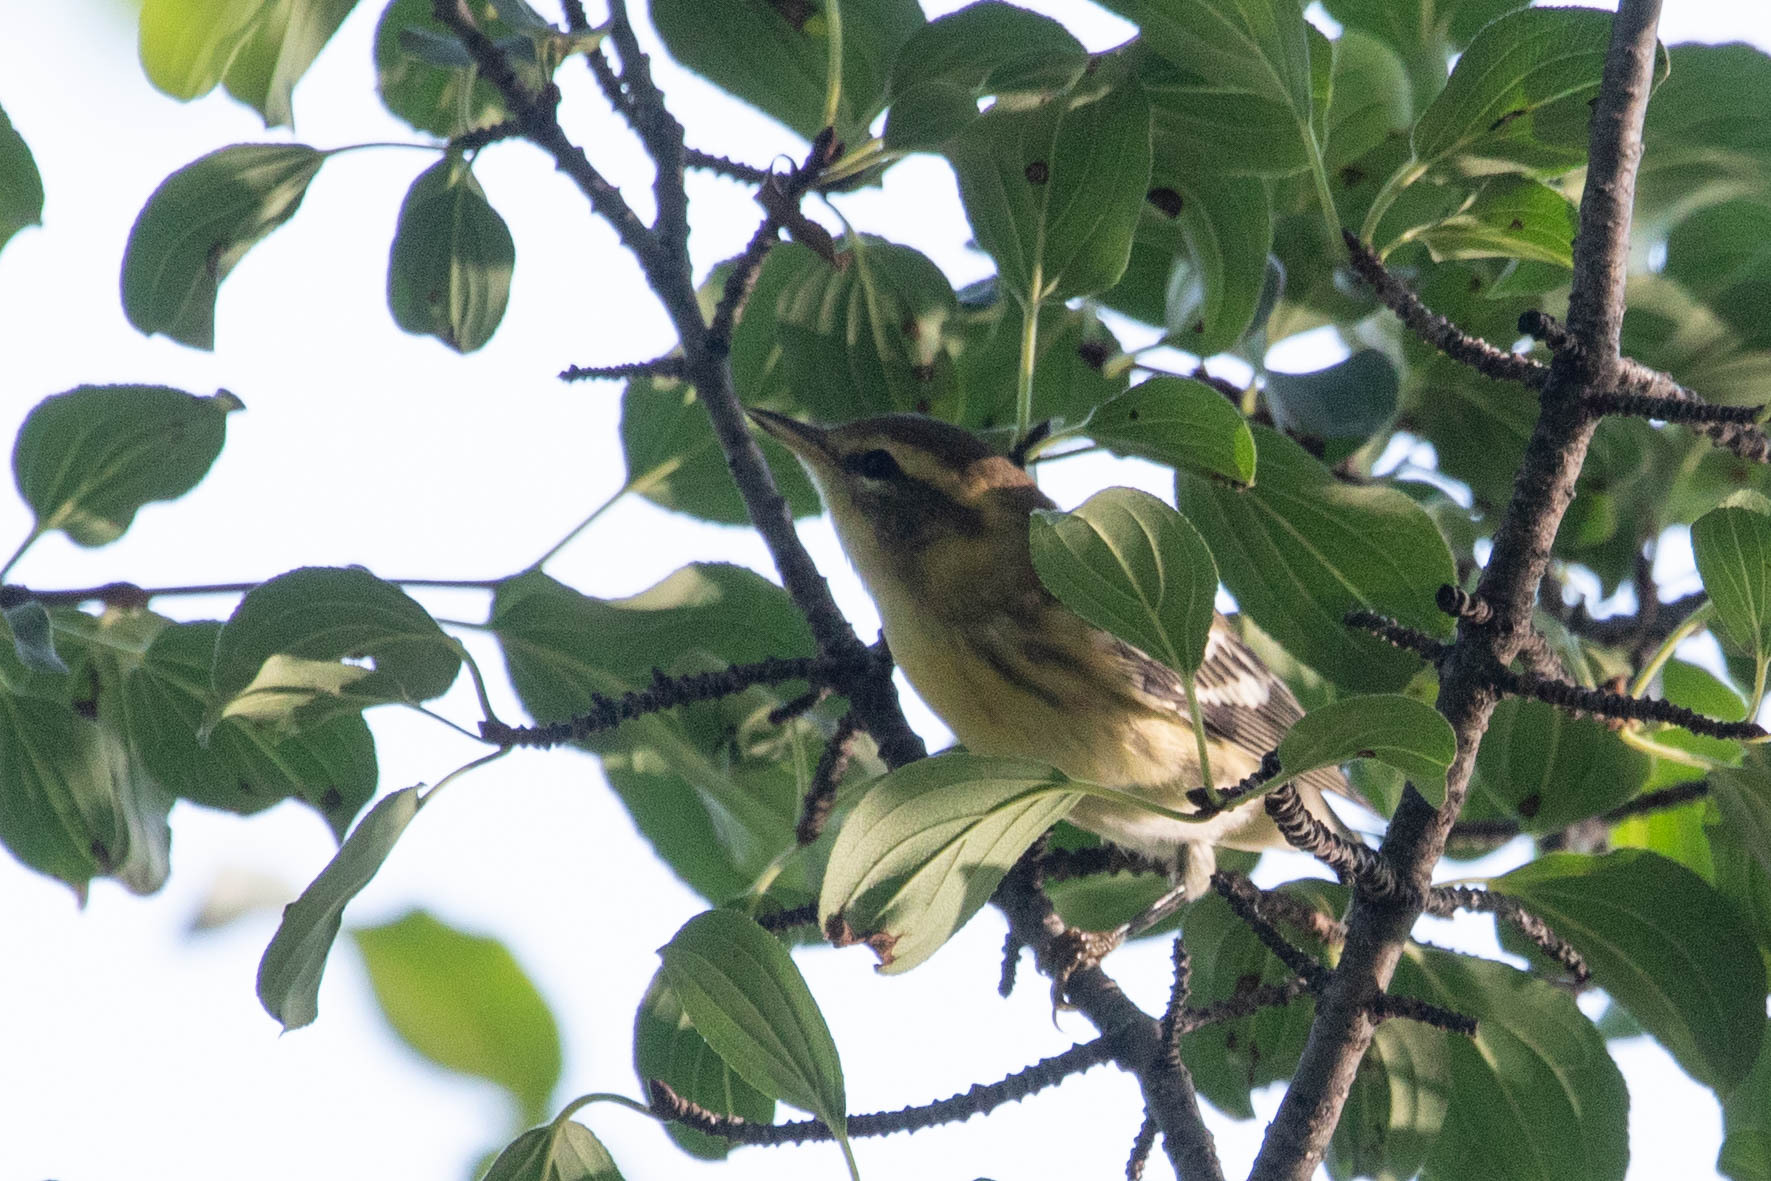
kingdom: Animalia
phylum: Chordata
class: Aves
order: Passeriformes
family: Parulidae
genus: Setophaga
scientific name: Setophaga fusca
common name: Blackburnian warbler
